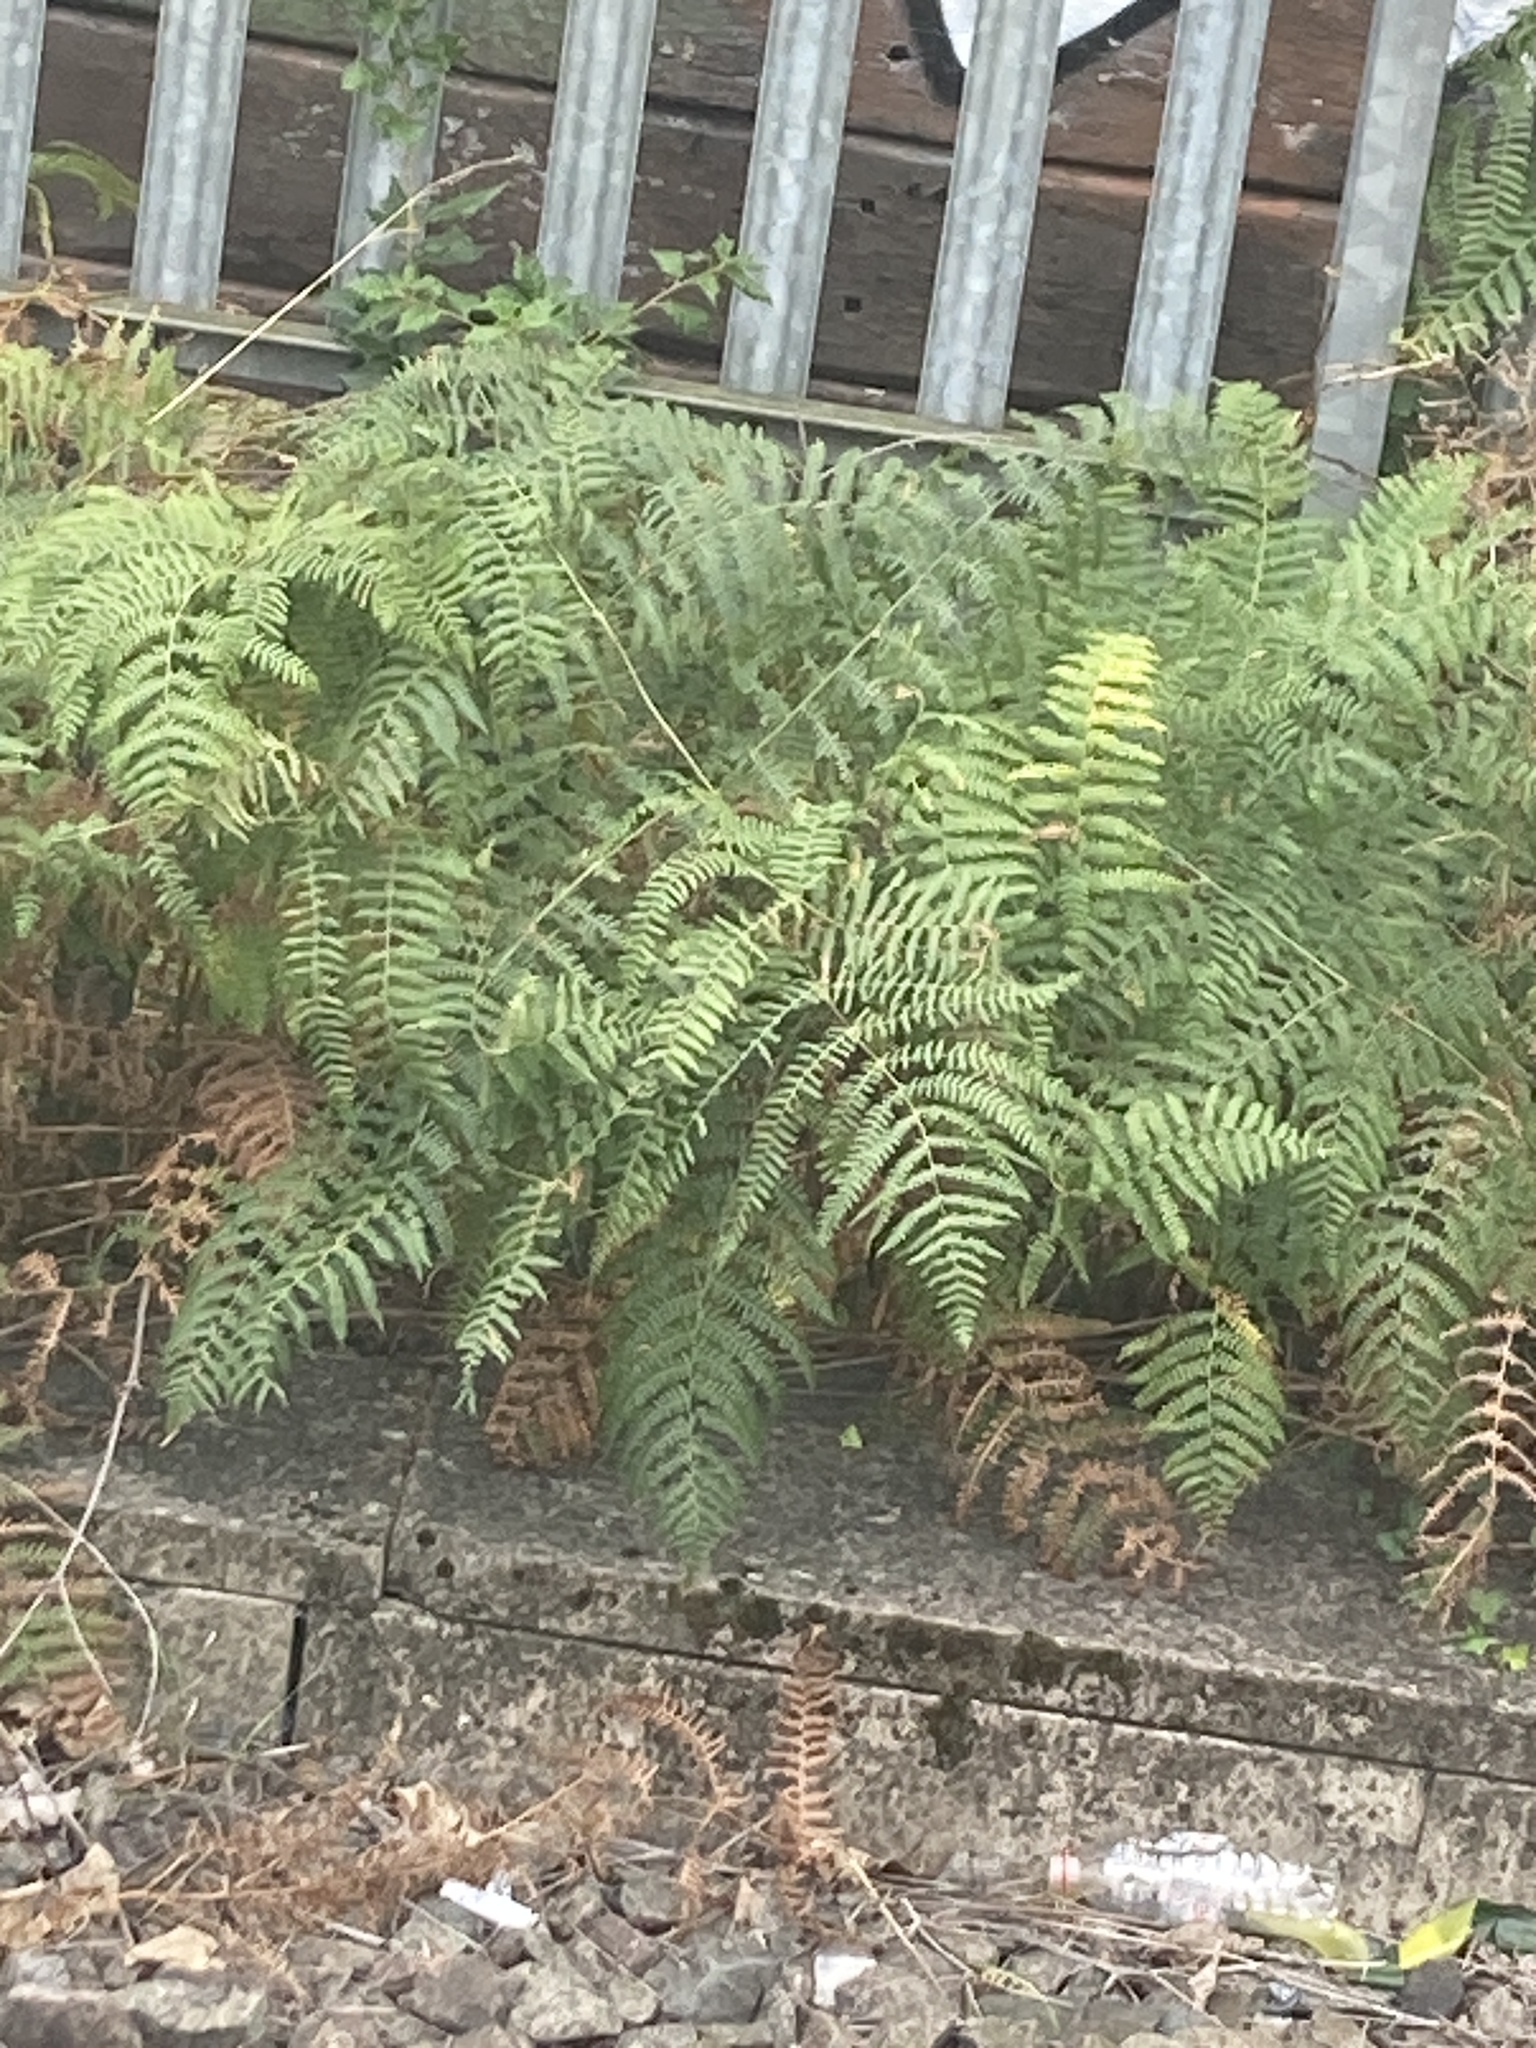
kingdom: Plantae
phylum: Tracheophyta
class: Polypodiopsida
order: Polypodiales
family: Dennstaedtiaceae
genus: Pteridium
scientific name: Pteridium aquilinum
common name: Bracken
